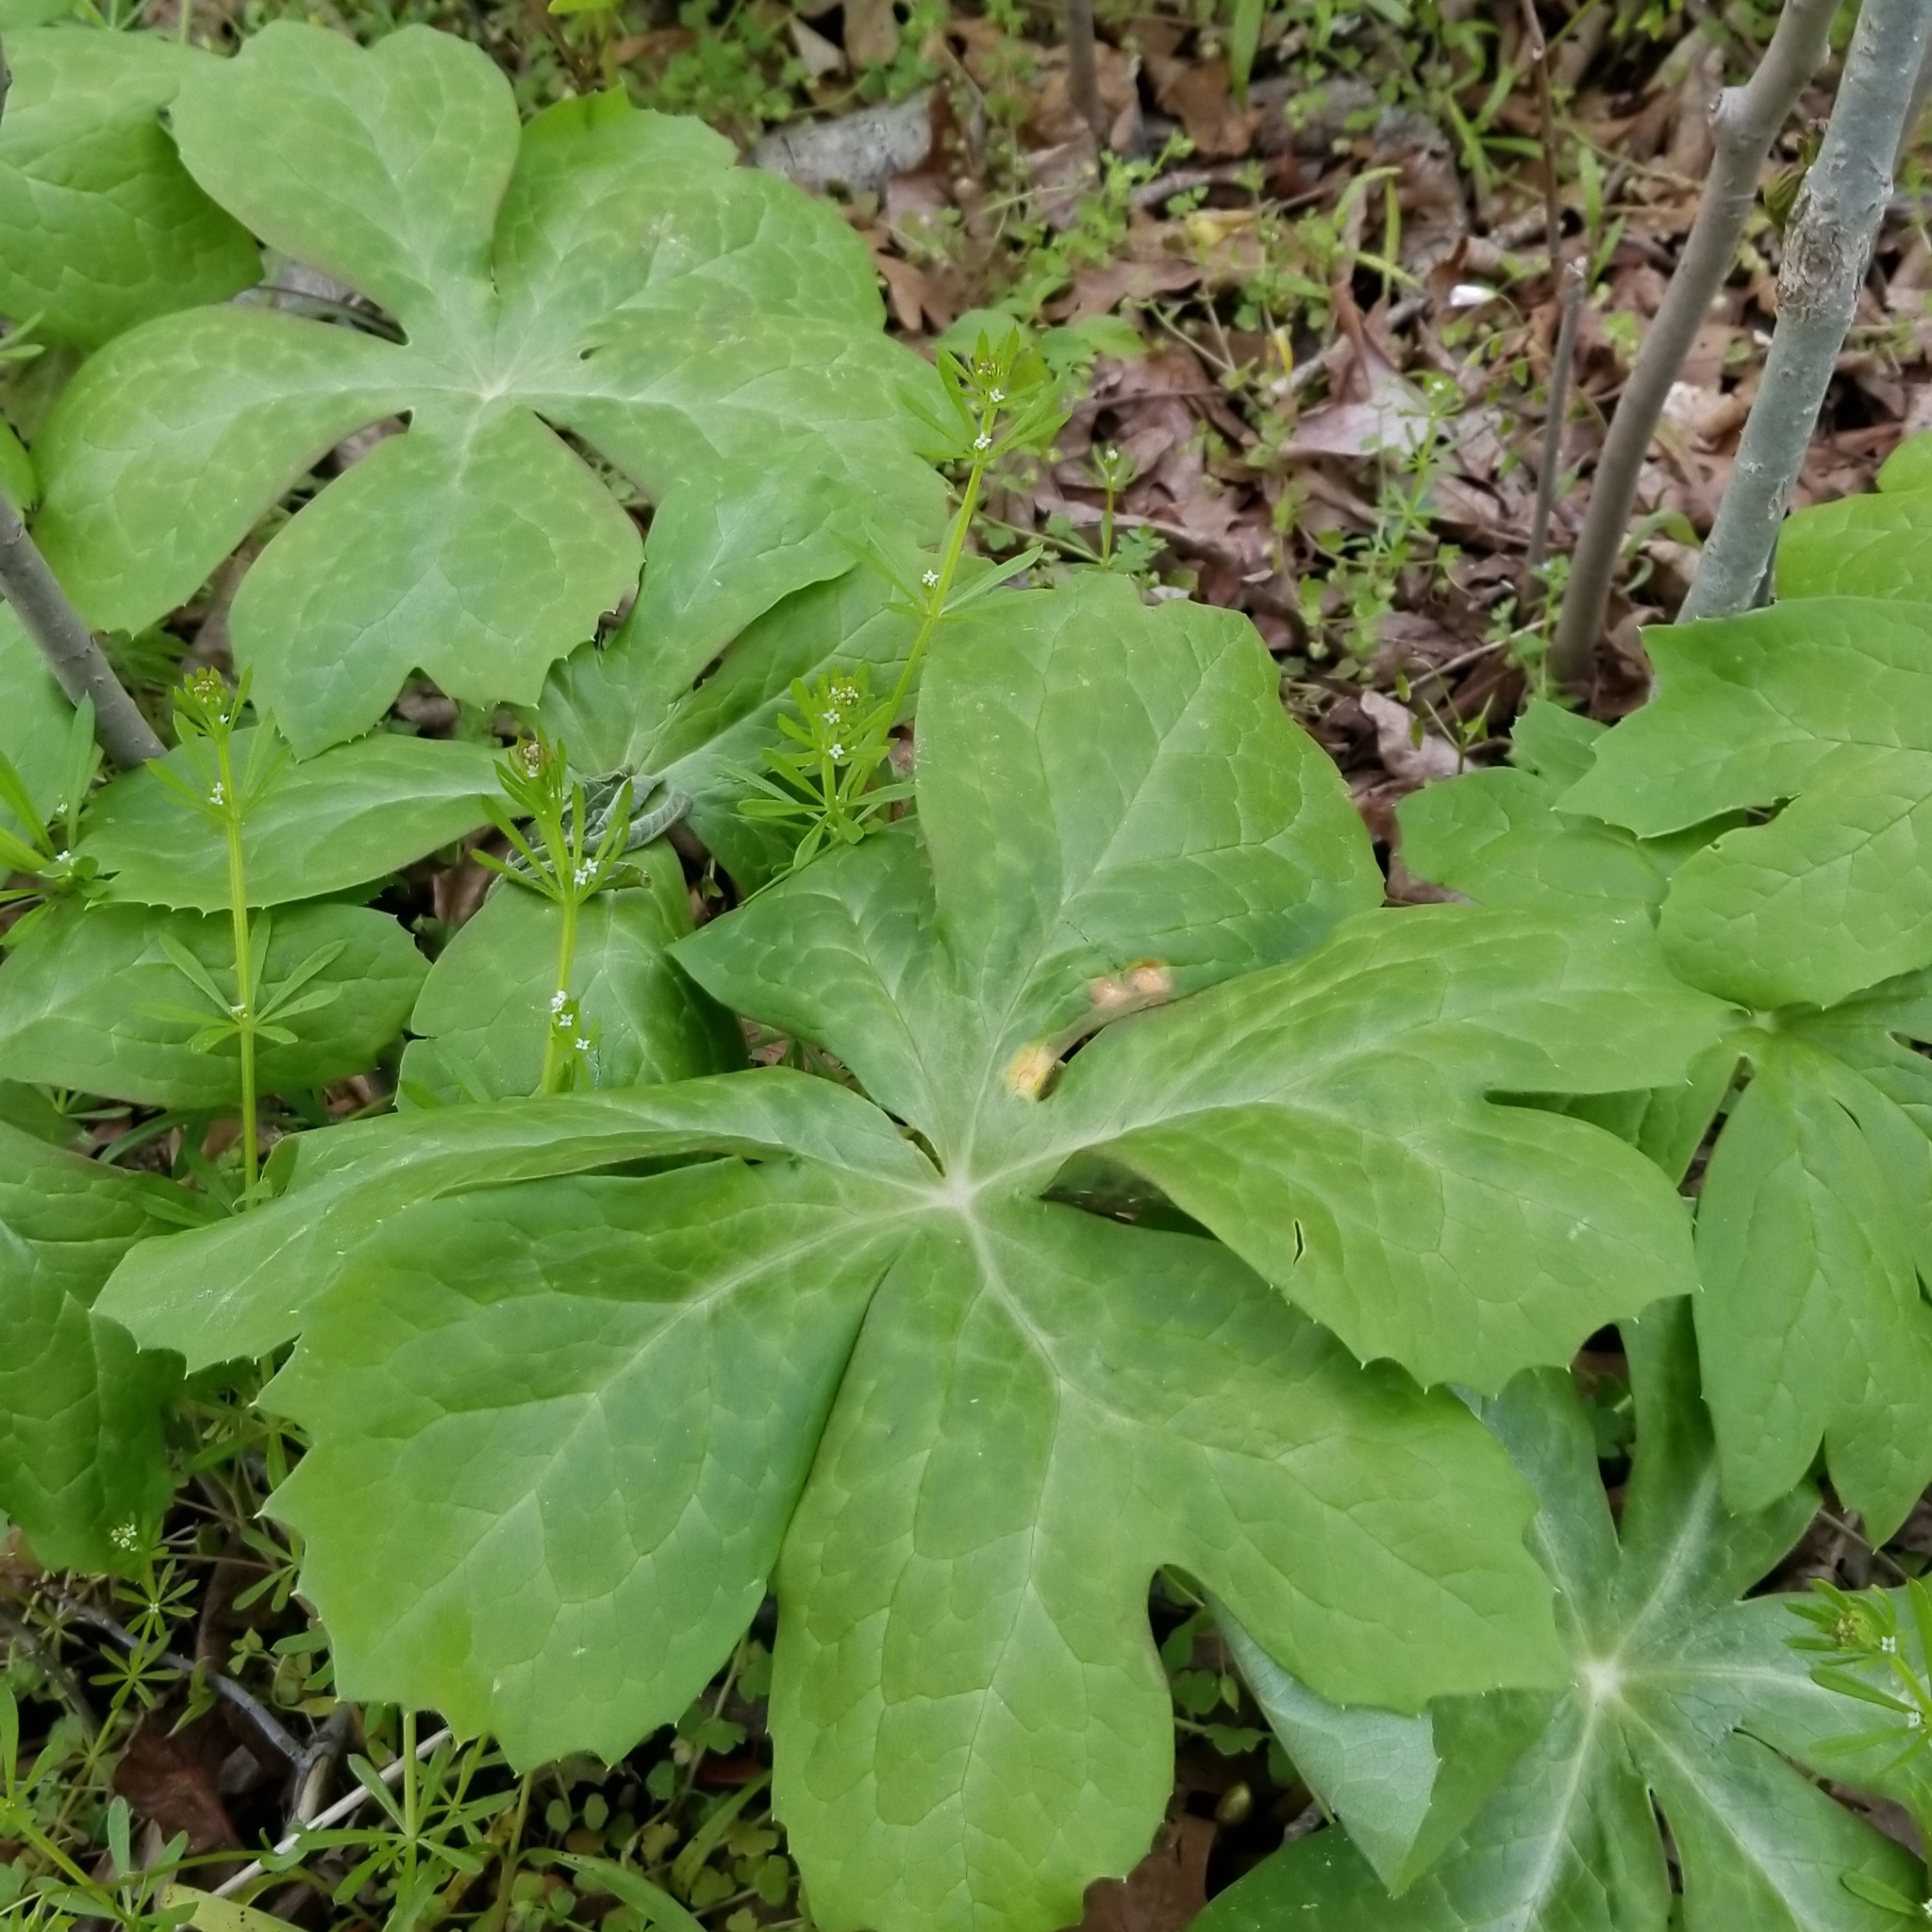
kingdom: Plantae
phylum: Tracheophyta
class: Magnoliopsida
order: Ranunculales
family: Berberidaceae
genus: Podophyllum
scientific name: Podophyllum peltatum
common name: Wild mandrake
